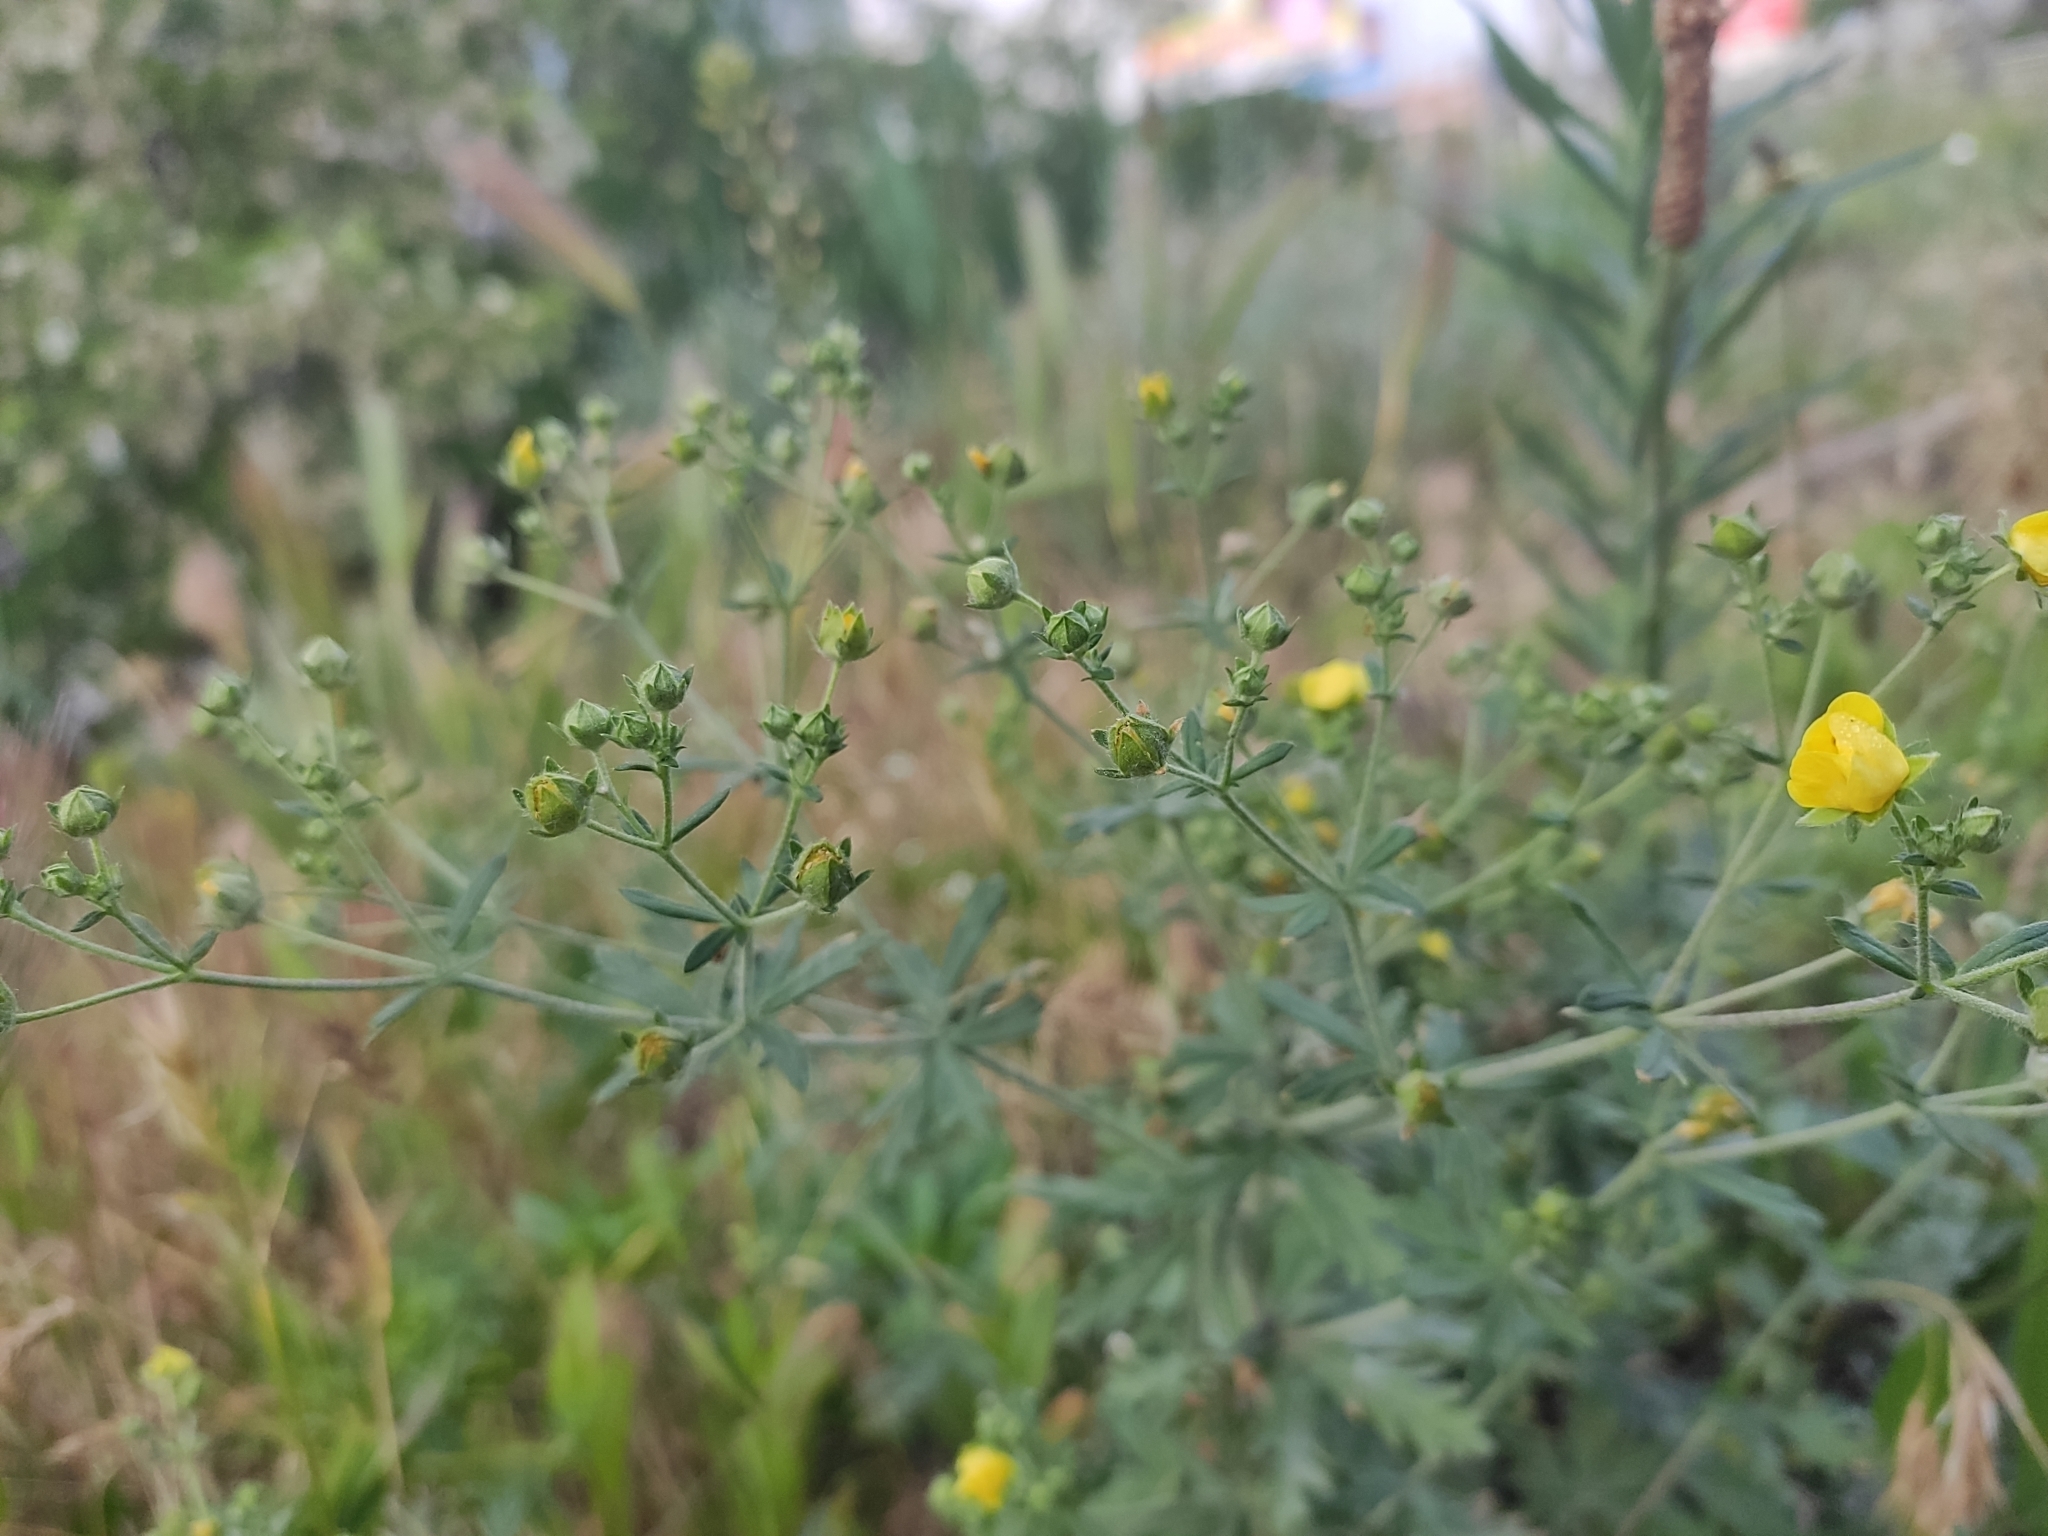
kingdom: Plantae
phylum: Tracheophyta
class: Magnoliopsida
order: Rosales
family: Rosaceae
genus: Potentilla
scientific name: Potentilla argentea
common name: Hoary cinquefoil
